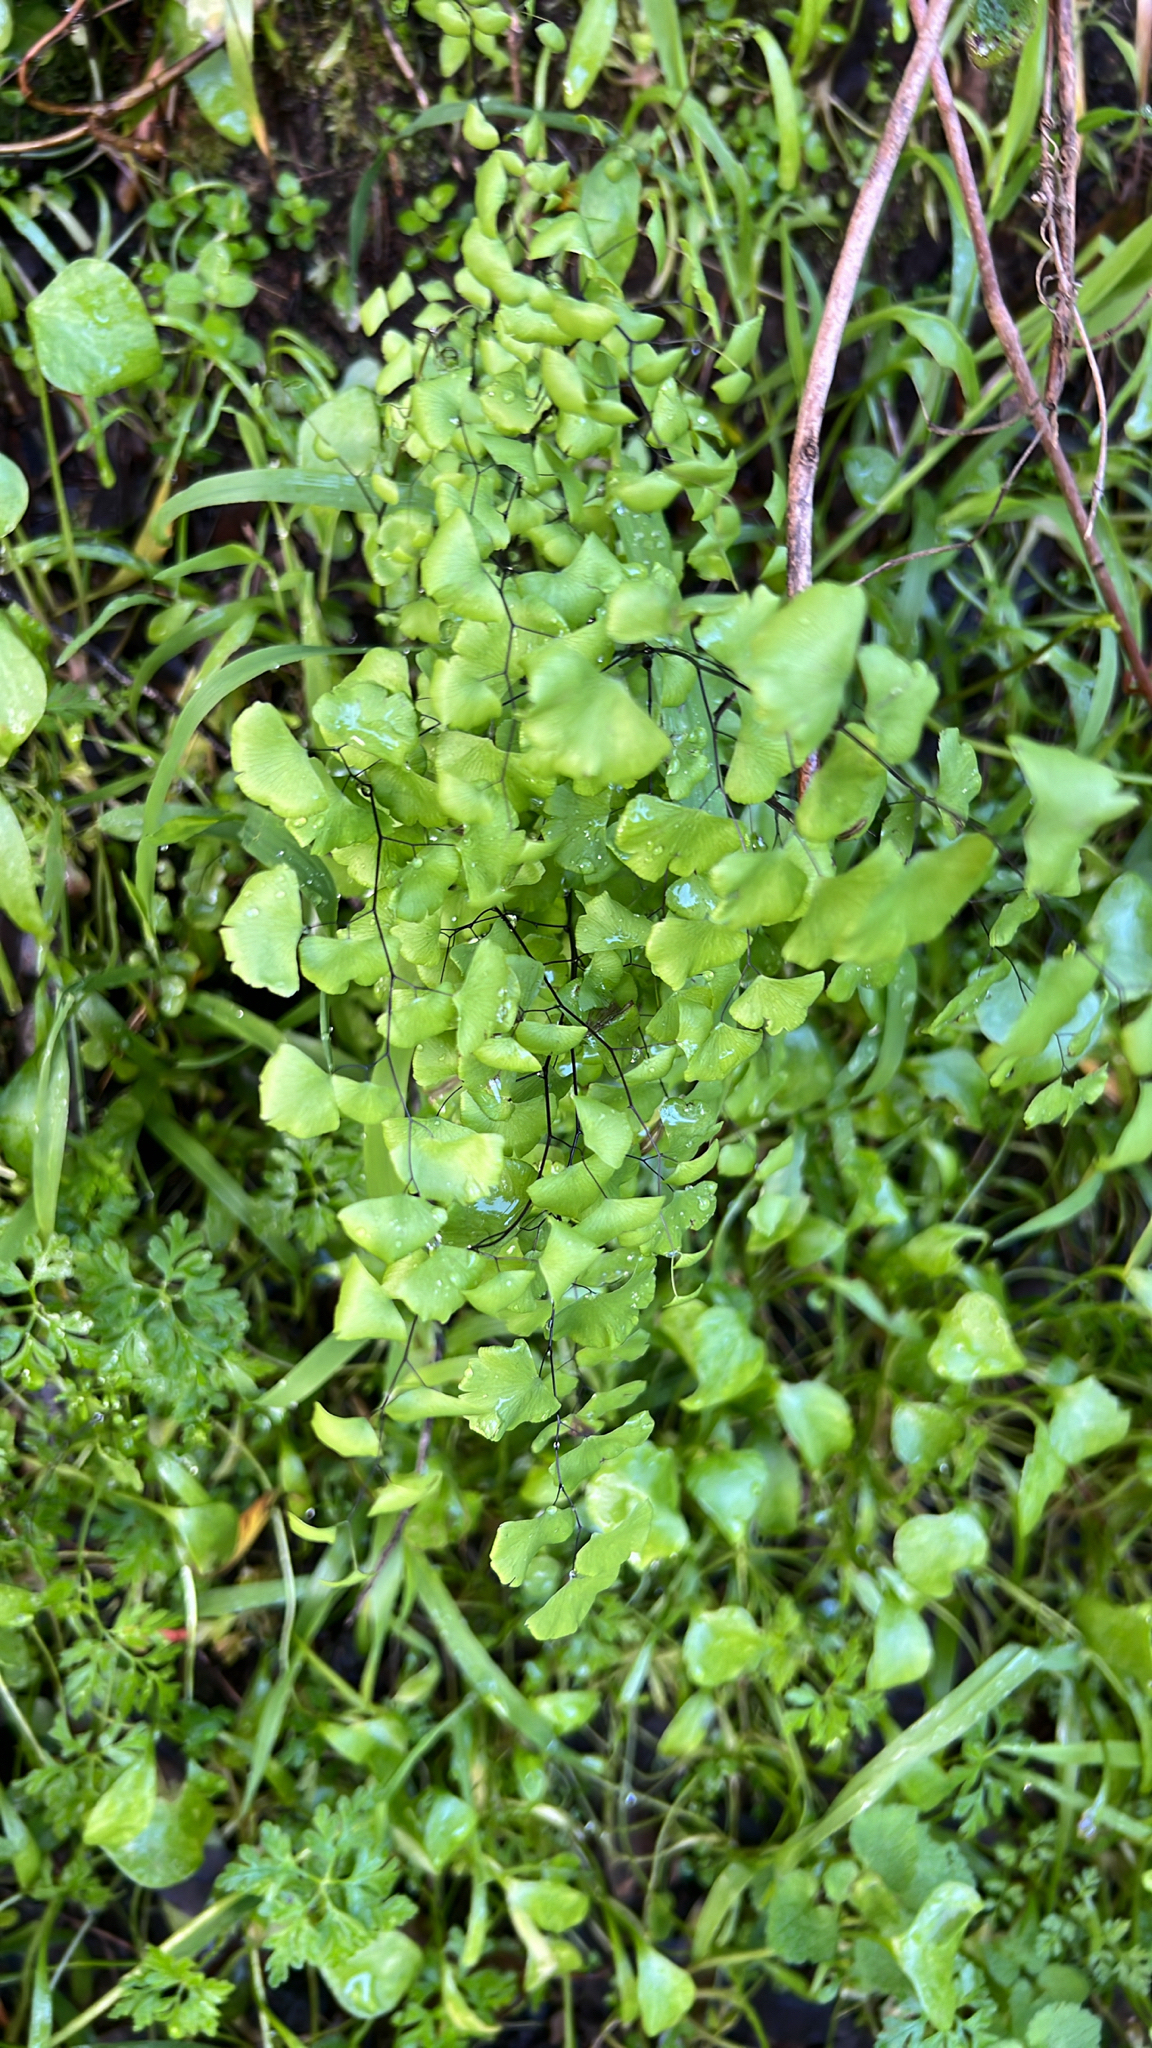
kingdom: Plantae
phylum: Tracheophyta
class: Polypodiopsida
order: Polypodiales
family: Pteridaceae
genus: Adiantum
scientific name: Adiantum jordanii
